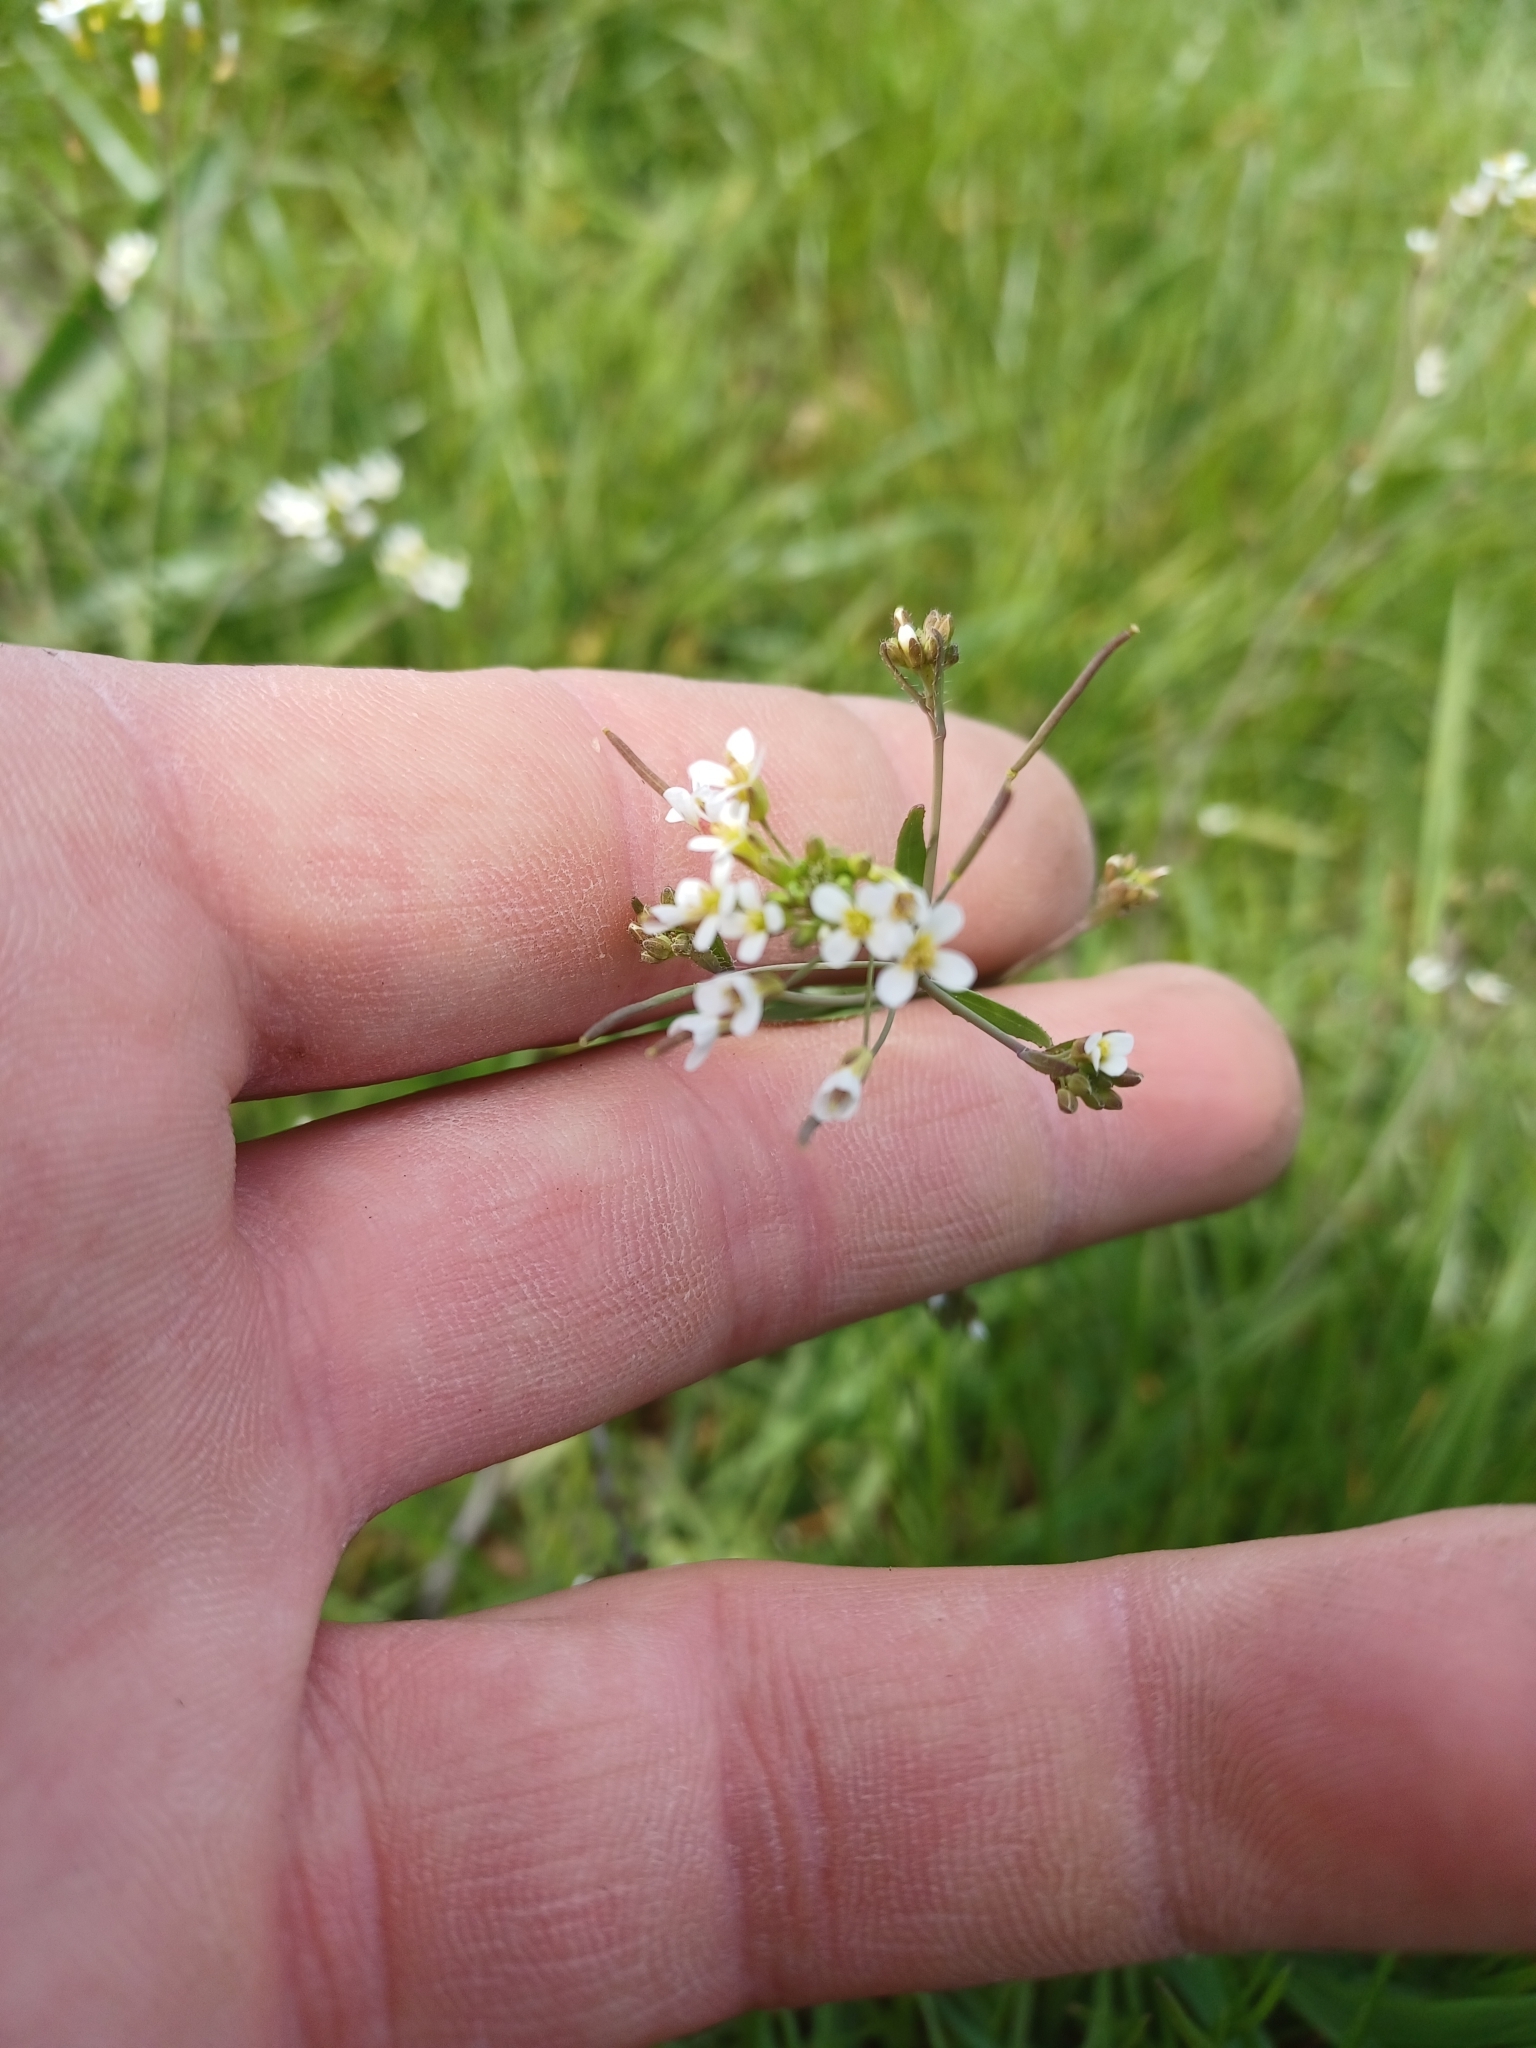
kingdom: Plantae
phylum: Tracheophyta
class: Magnoliopsida
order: Brassicales
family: Brassicaceae
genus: Arabidopsis
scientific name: Arabidopsis thaliana
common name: Thale cress
